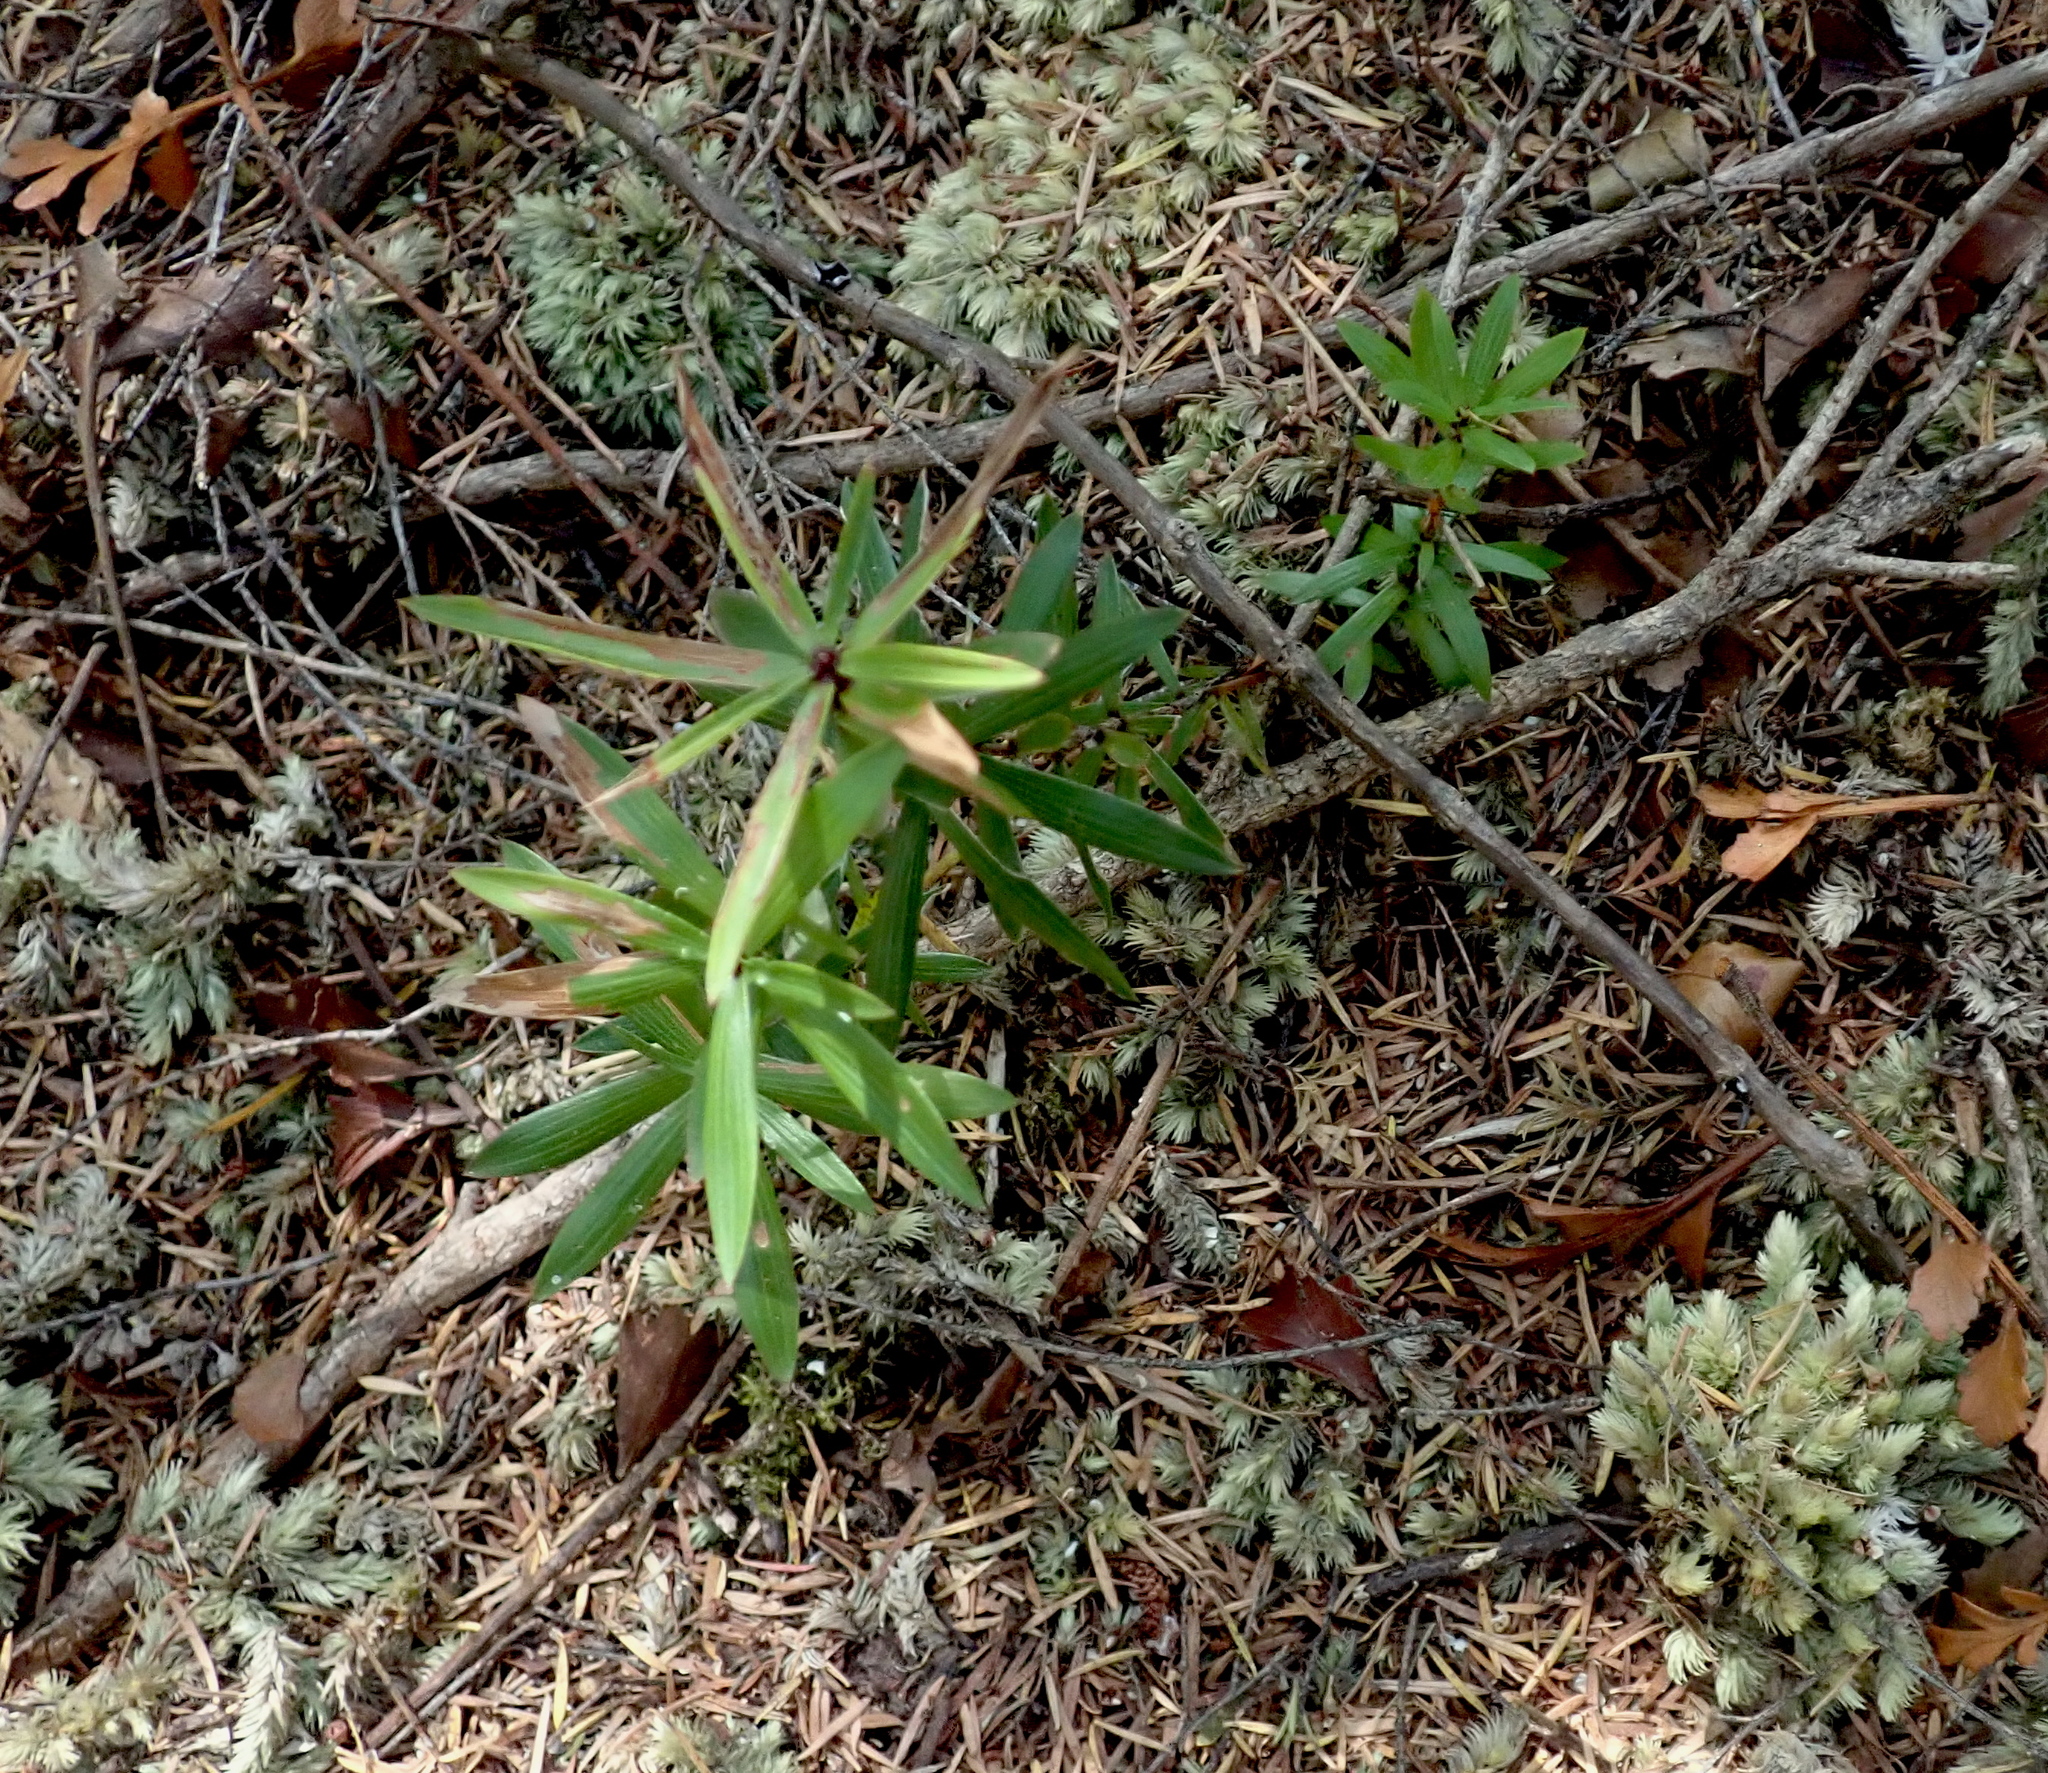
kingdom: Plantae
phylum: Tracheophyta
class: Magnoliopsida
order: Ericales
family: Ericaceae
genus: Leucopogon
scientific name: Leucopogon fasciculatus
